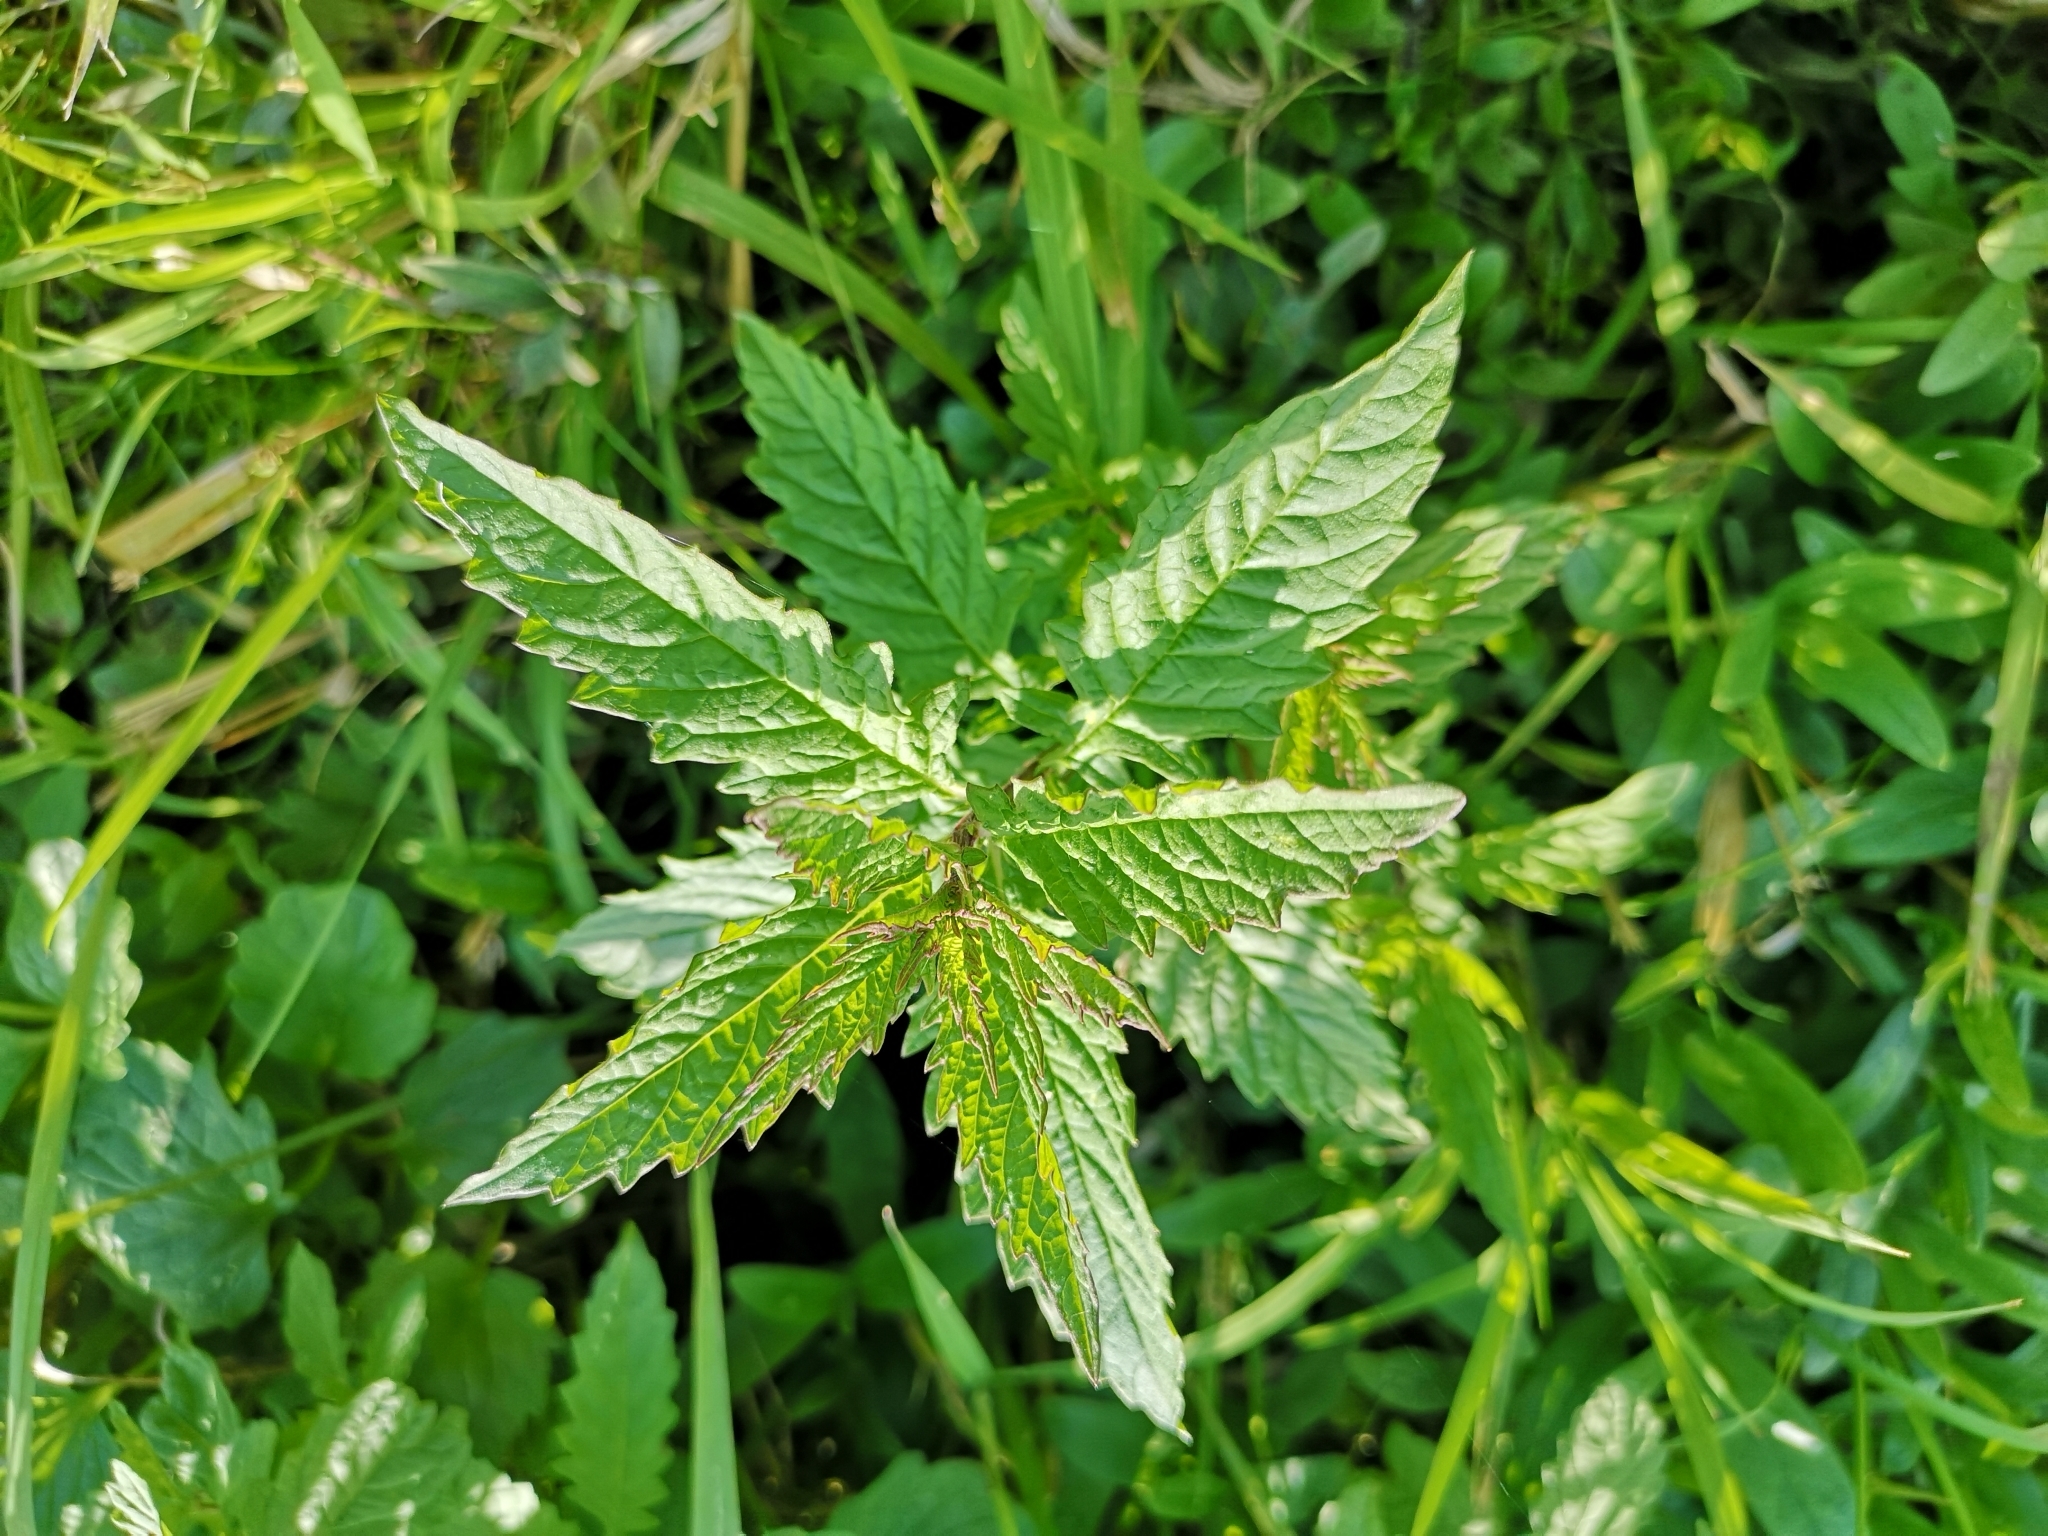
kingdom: Plantae
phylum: Tracheophyta
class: Magnoliopsida
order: Lamiales
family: Lamiaceae
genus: Lycopus
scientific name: Lycopus europaeus
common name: European bugleweed
